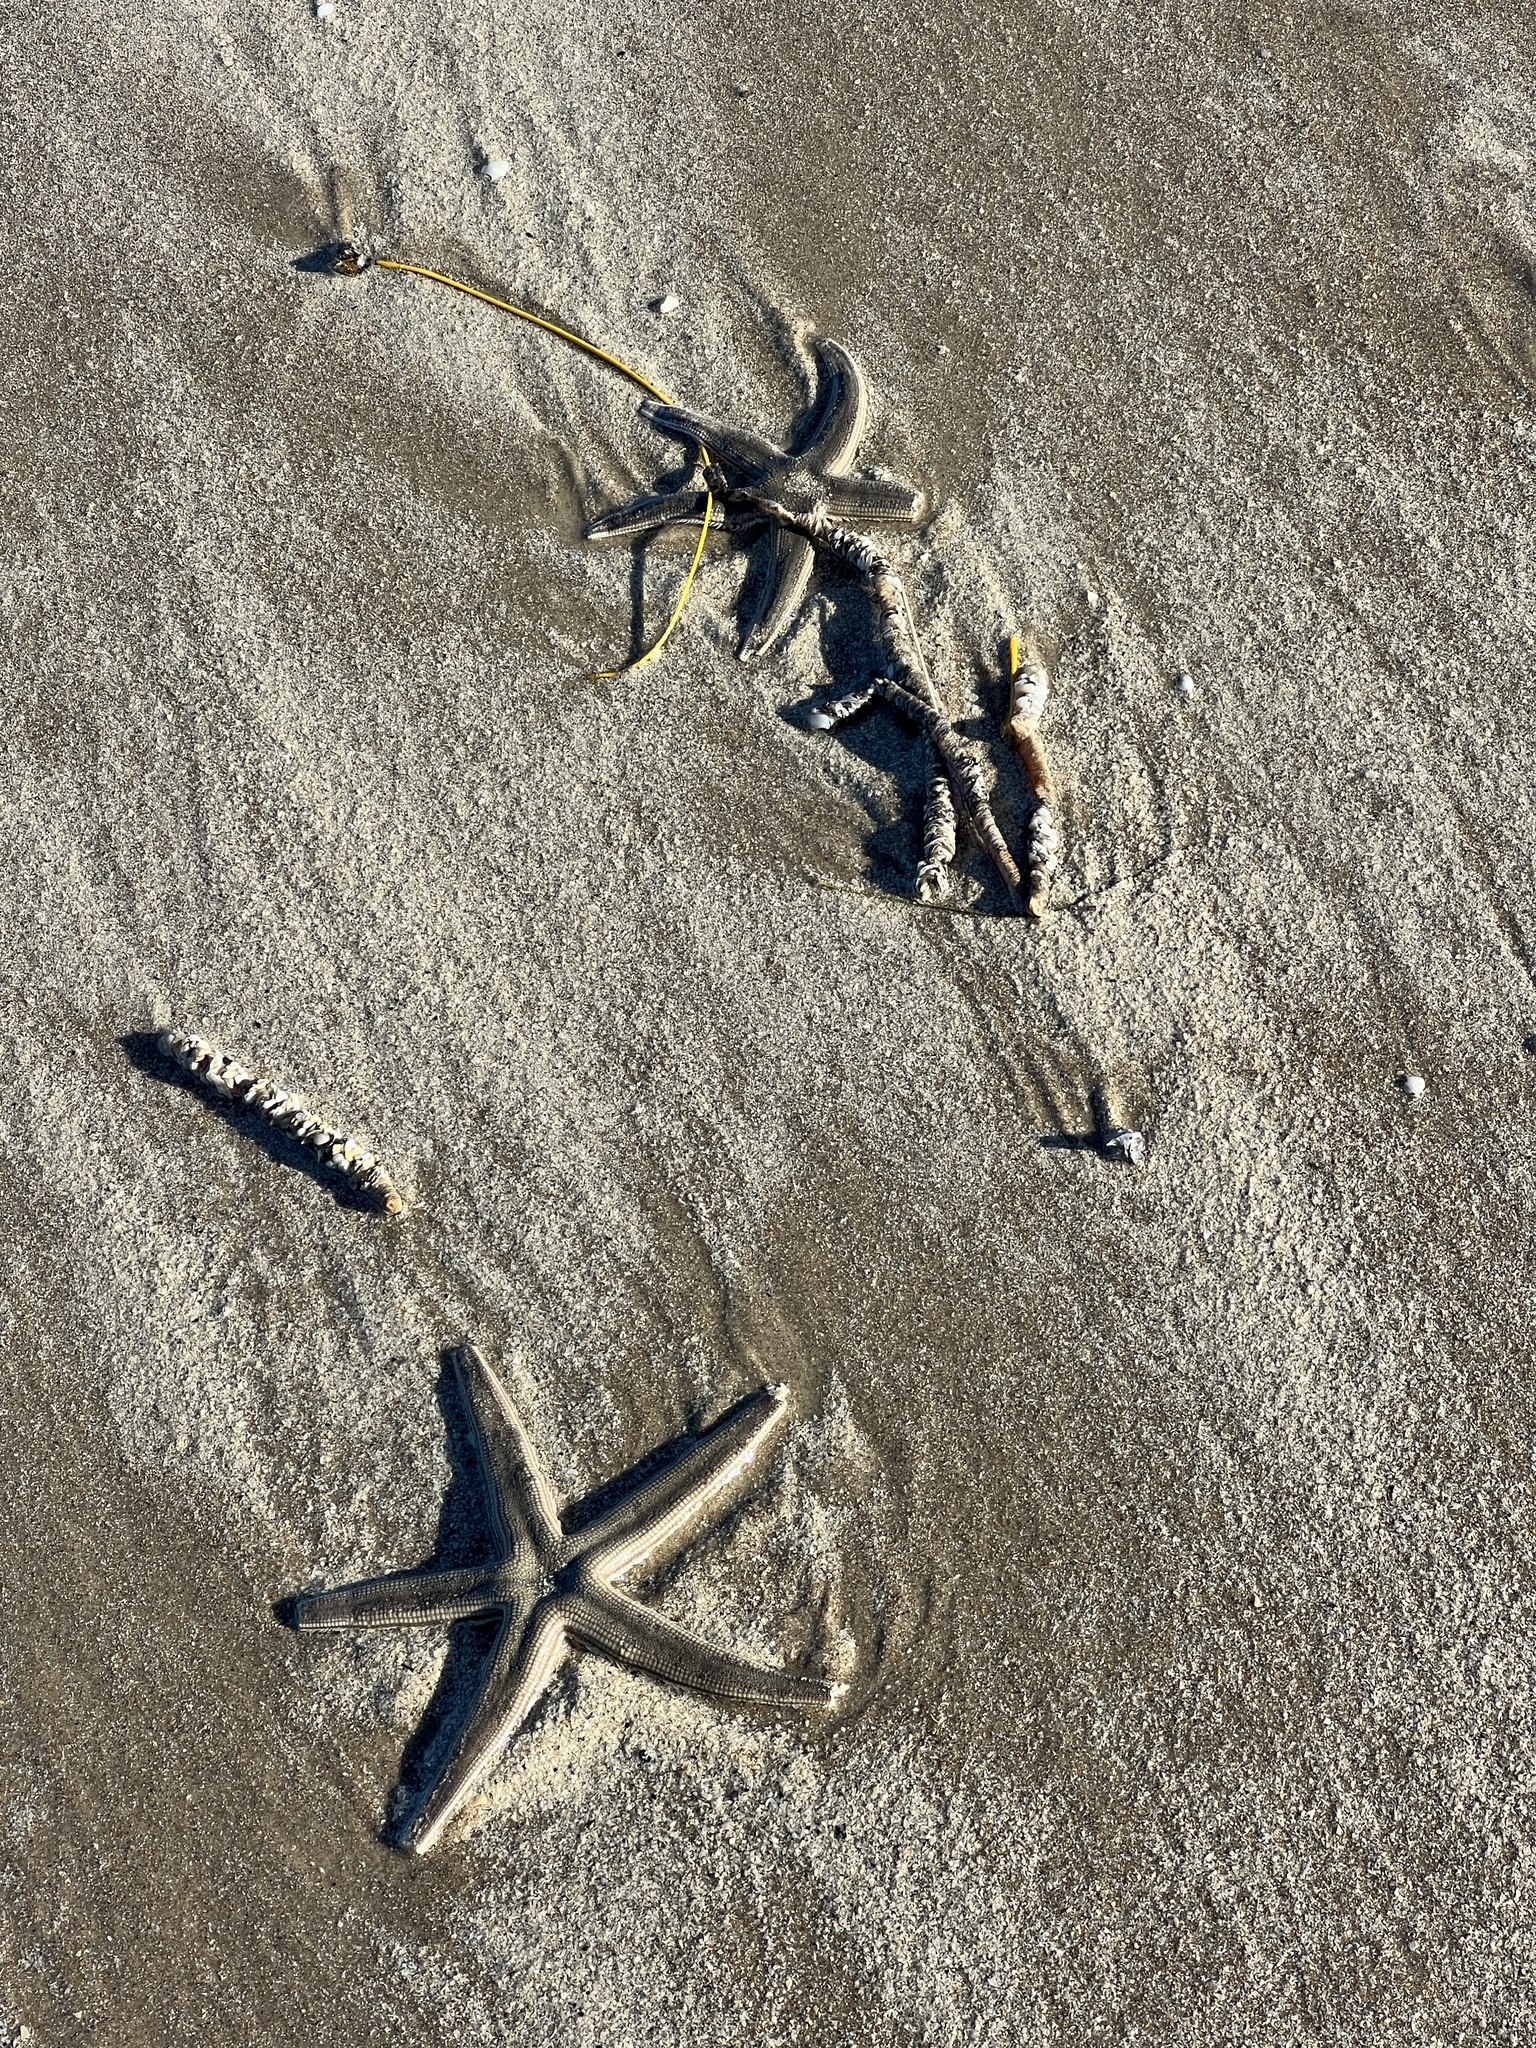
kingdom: Animalia
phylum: Echinodermata
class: Asteroidea
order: Paxillosida
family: Luidiidae
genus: Luidia
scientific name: Luidia clathrata
